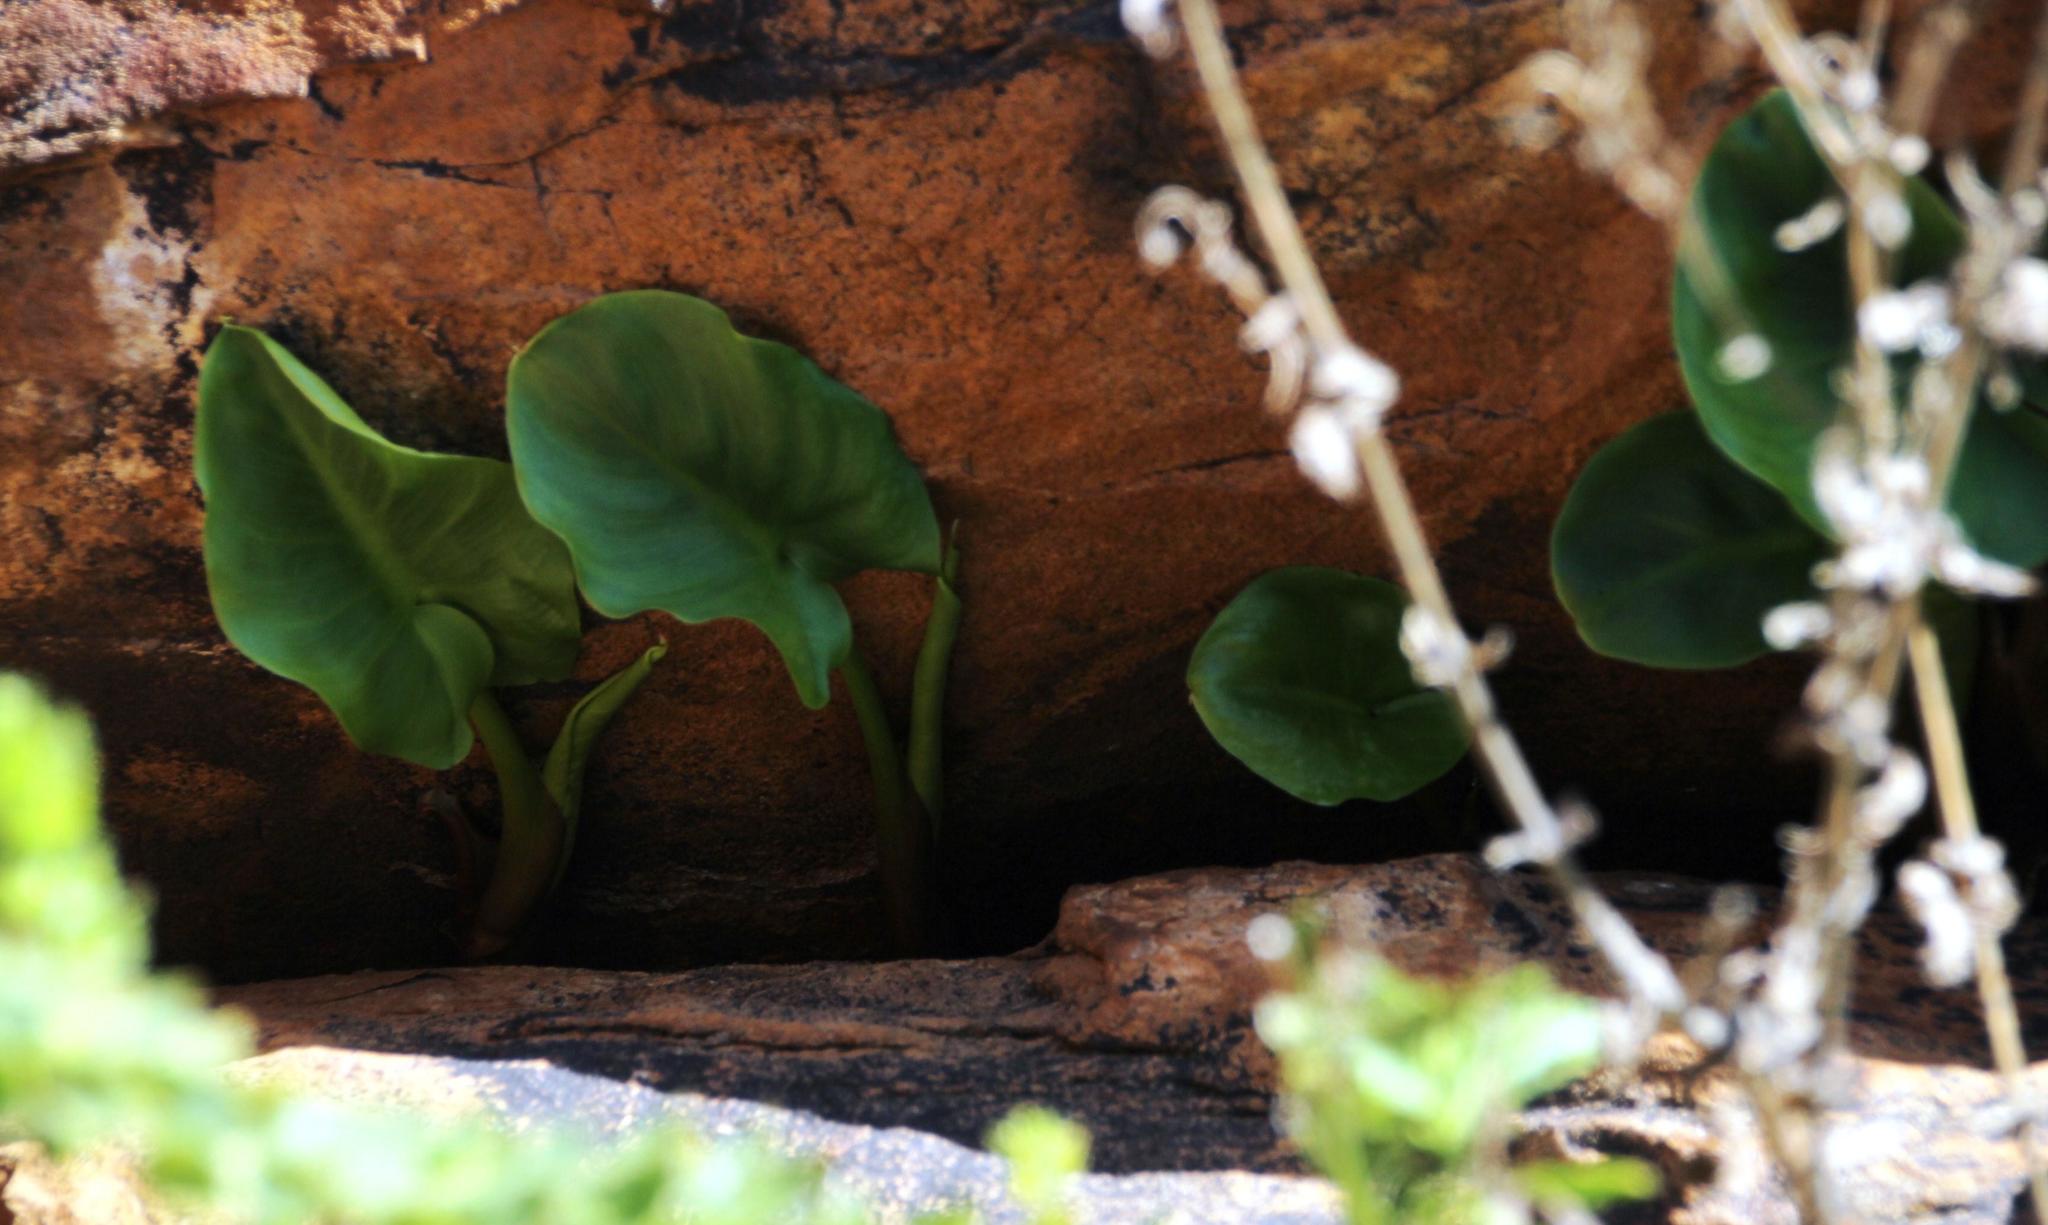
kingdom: Plantae
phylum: Tracheophyta
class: Liliopsida
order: Alismatales
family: Araceae
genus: Zantedeschia
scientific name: Zantedeschia aethiopica
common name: Altar-lily
